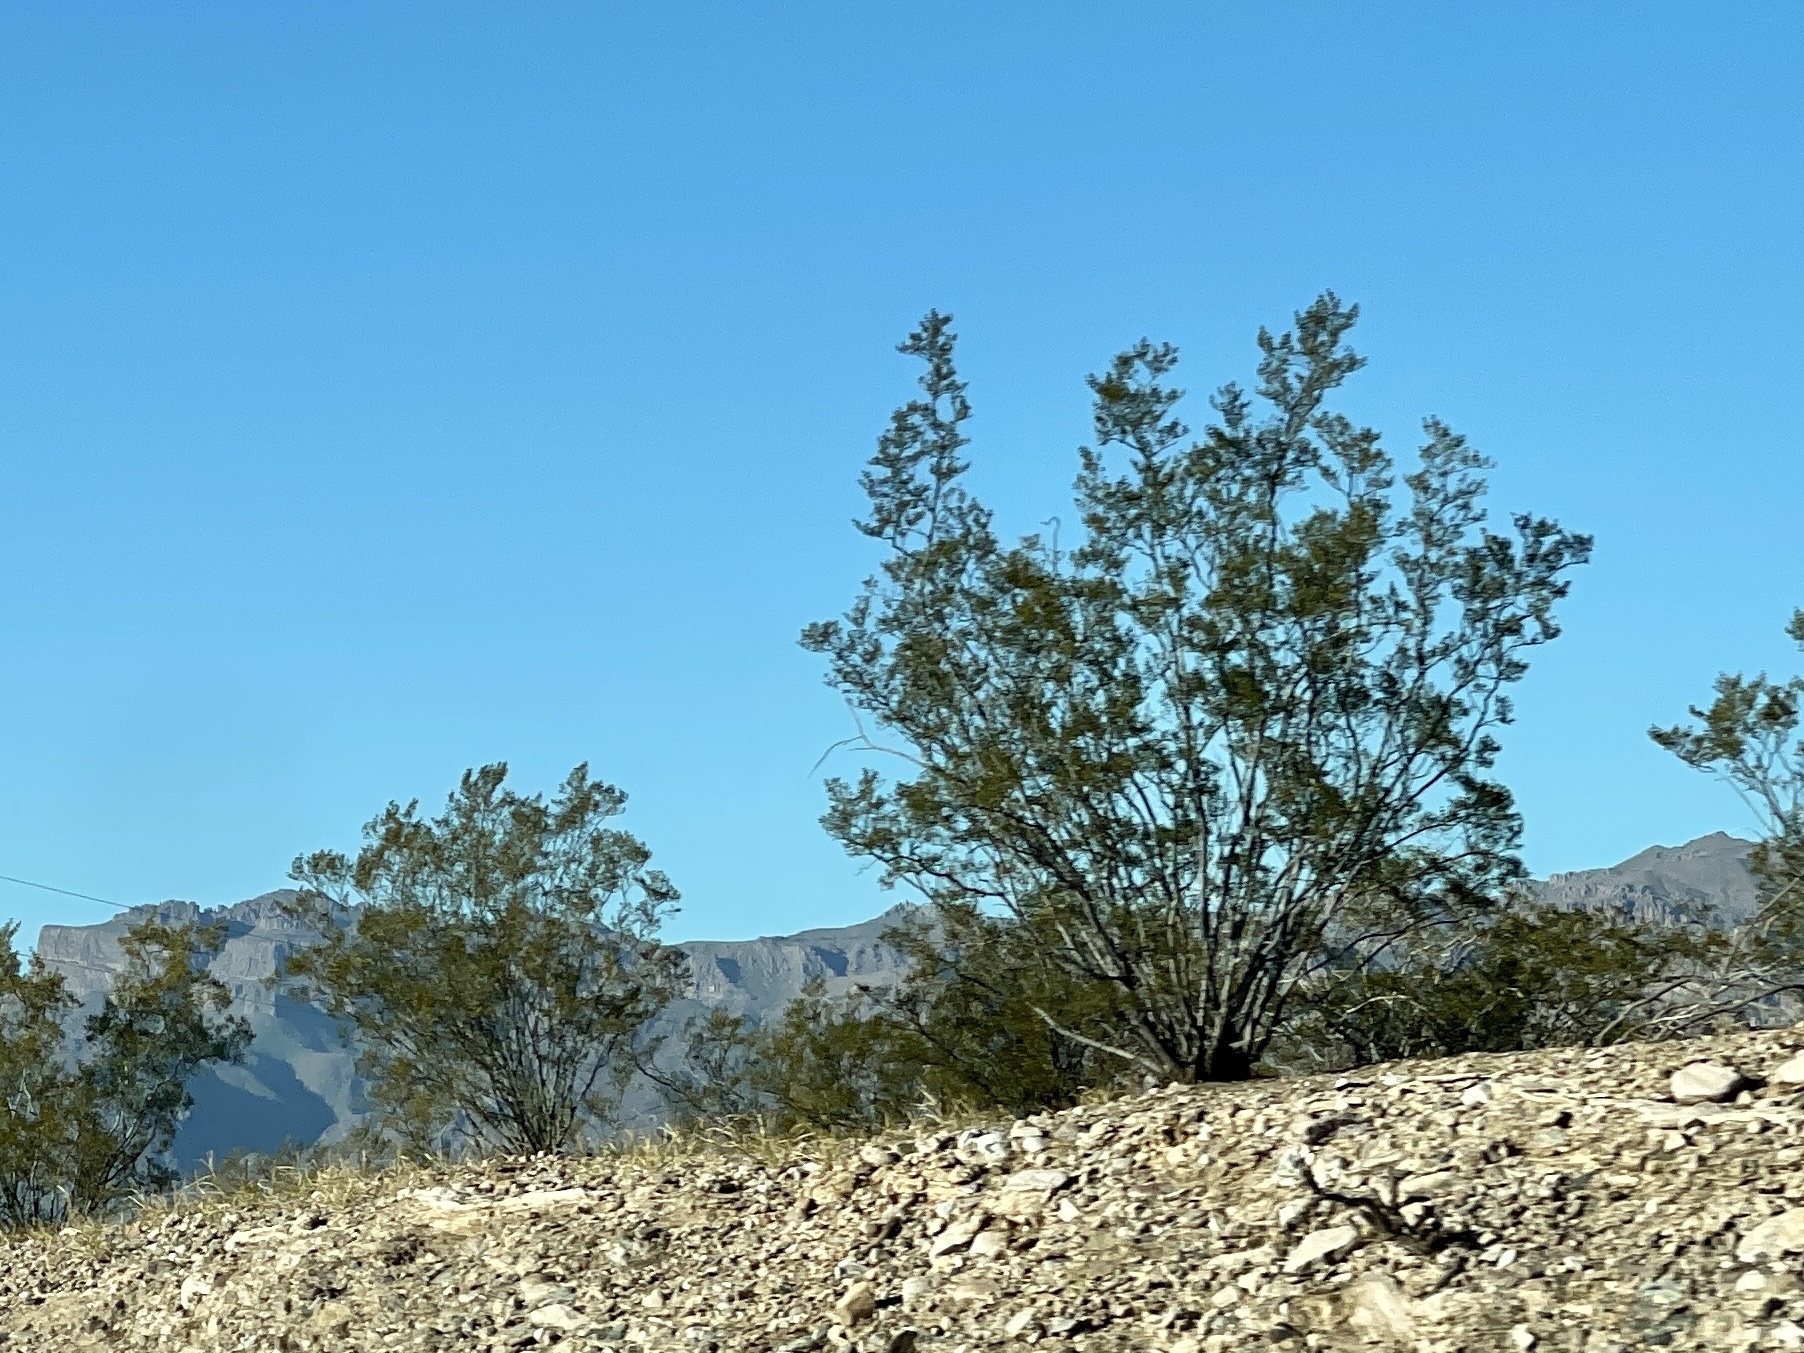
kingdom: Plantae
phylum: Tracheophyta
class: Magnoliopsida
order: Zygophyllales
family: Zygophyllaceae
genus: Larrea
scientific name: Larrea tridentata
